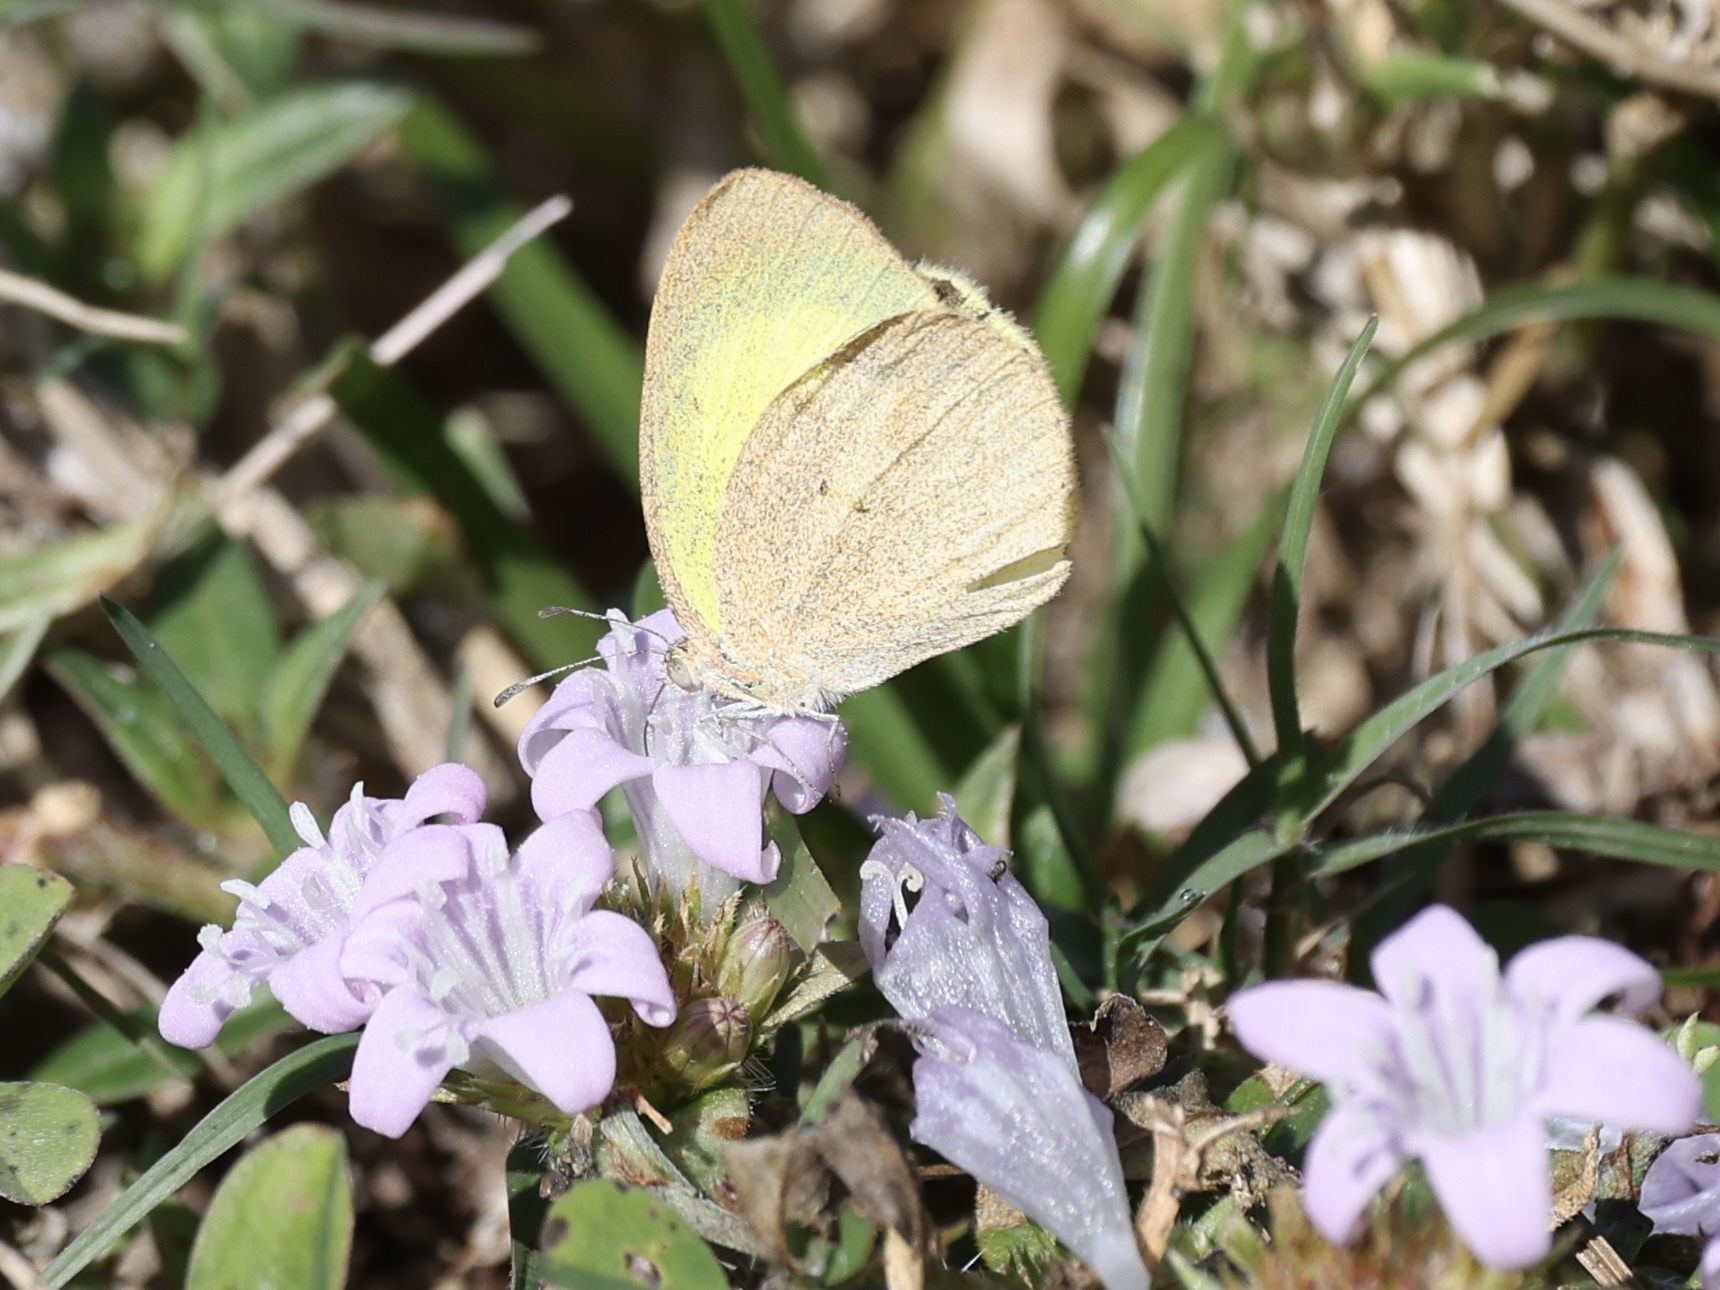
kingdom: Animalia
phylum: Arthropoda
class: Insecta
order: Lepidoptera
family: Pieridae
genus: Eurema
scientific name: Eurema daira
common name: Barred sulphur
